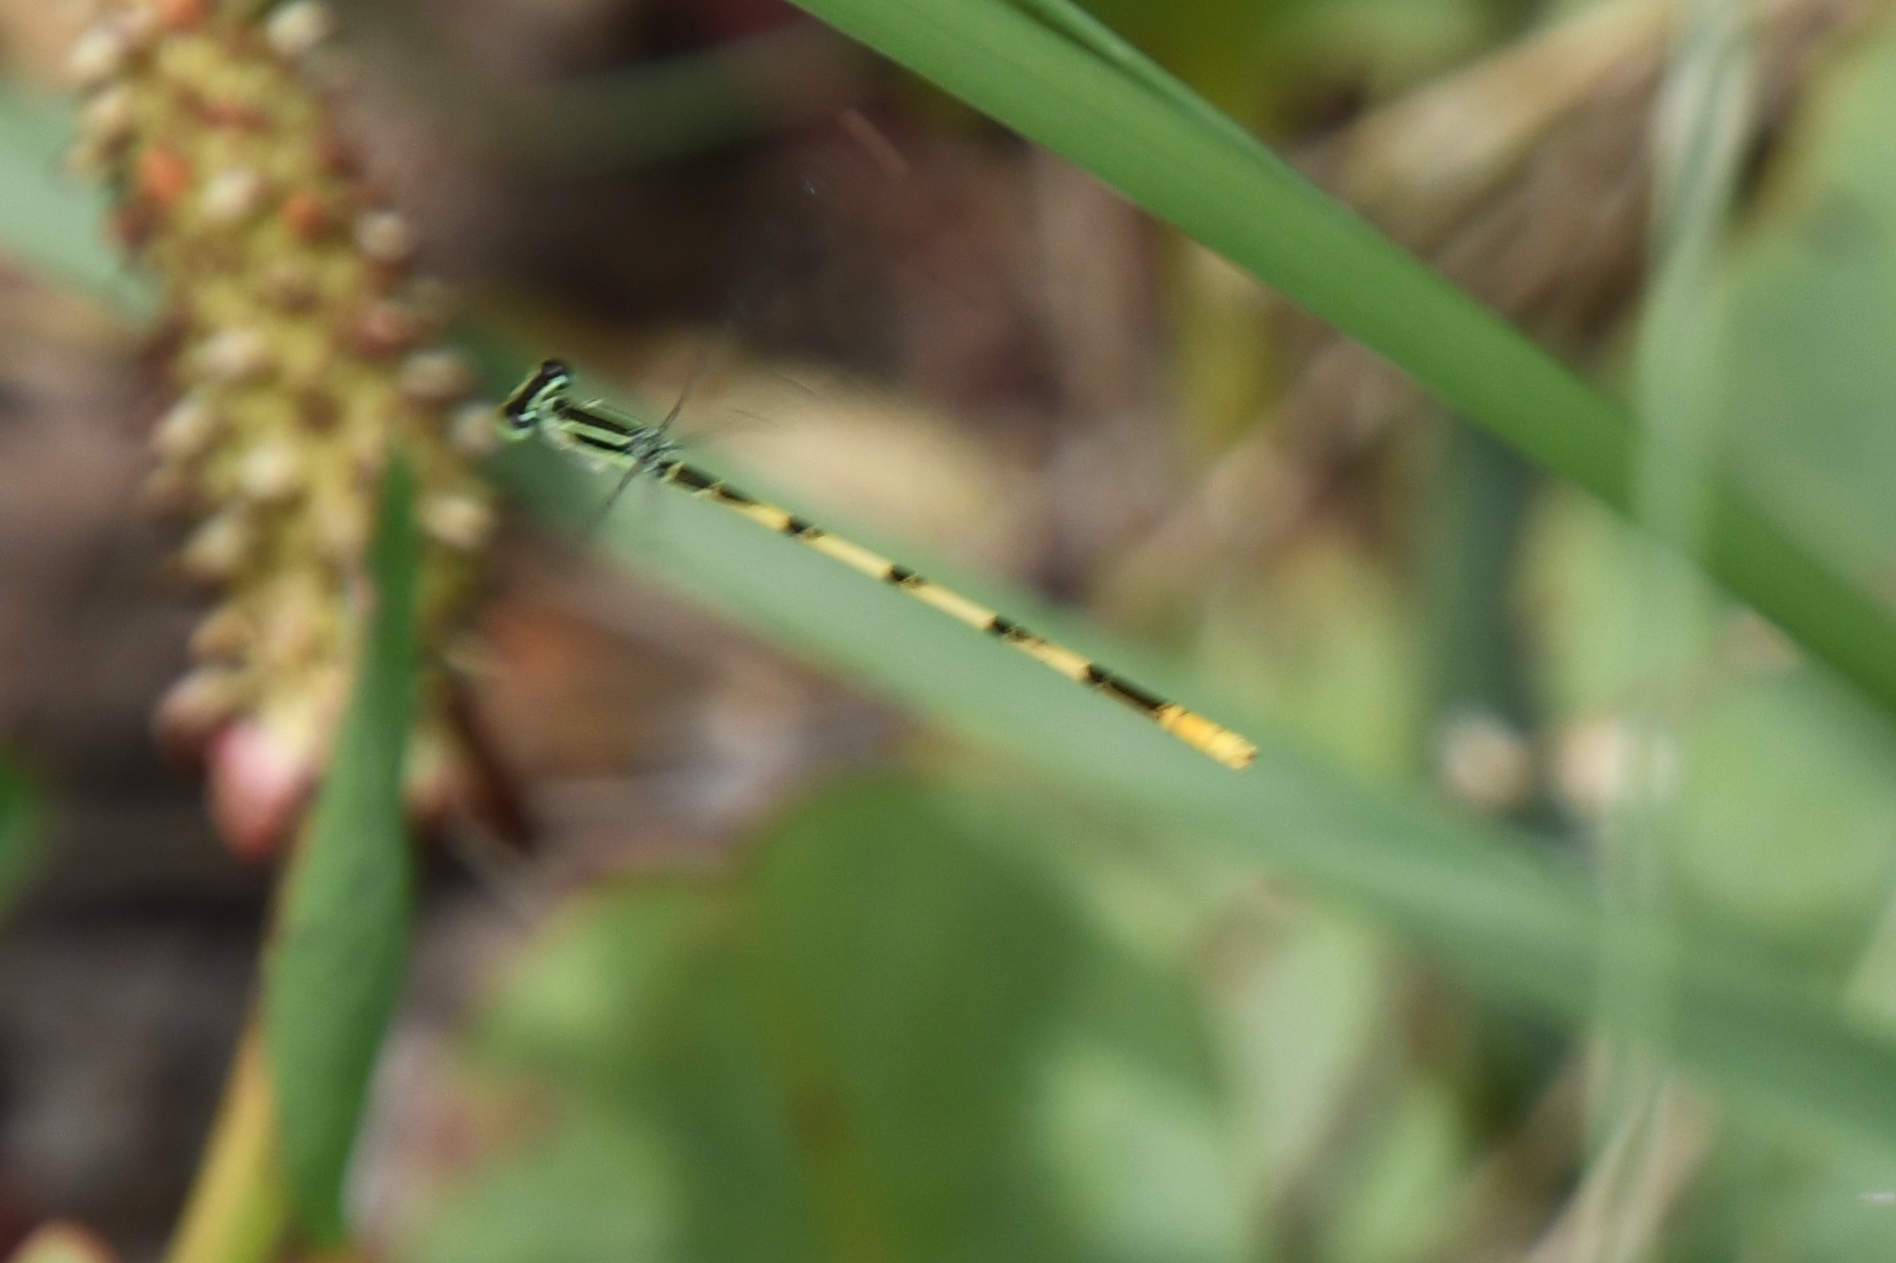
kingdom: Animalia
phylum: Arthropoda
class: Insecta
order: Odonata
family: Coenagrionidae
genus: Ischnura
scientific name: Ischnura hastata
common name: Citrine forktail
